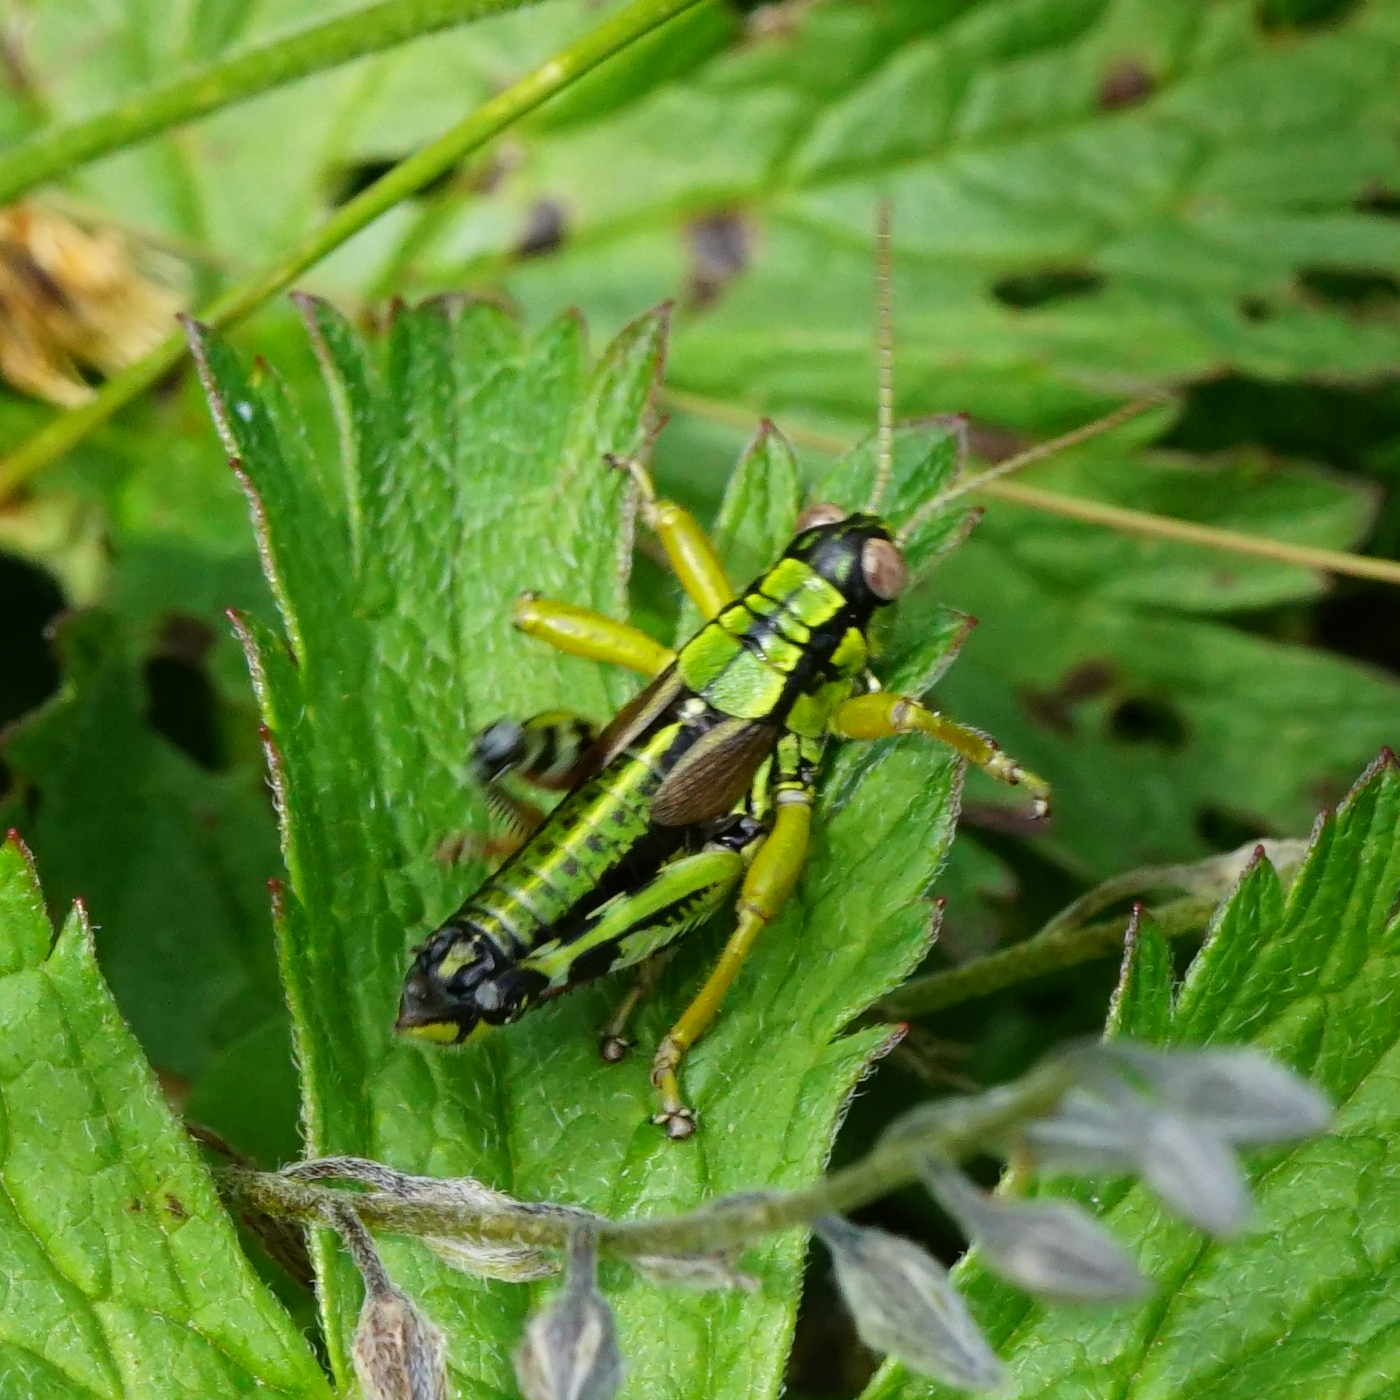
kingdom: Animalia
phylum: Arthropoda
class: Insecta
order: Orthoptera
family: Acrididae
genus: Miramella
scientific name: Miramella alpina
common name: Green mountain grasshopper
